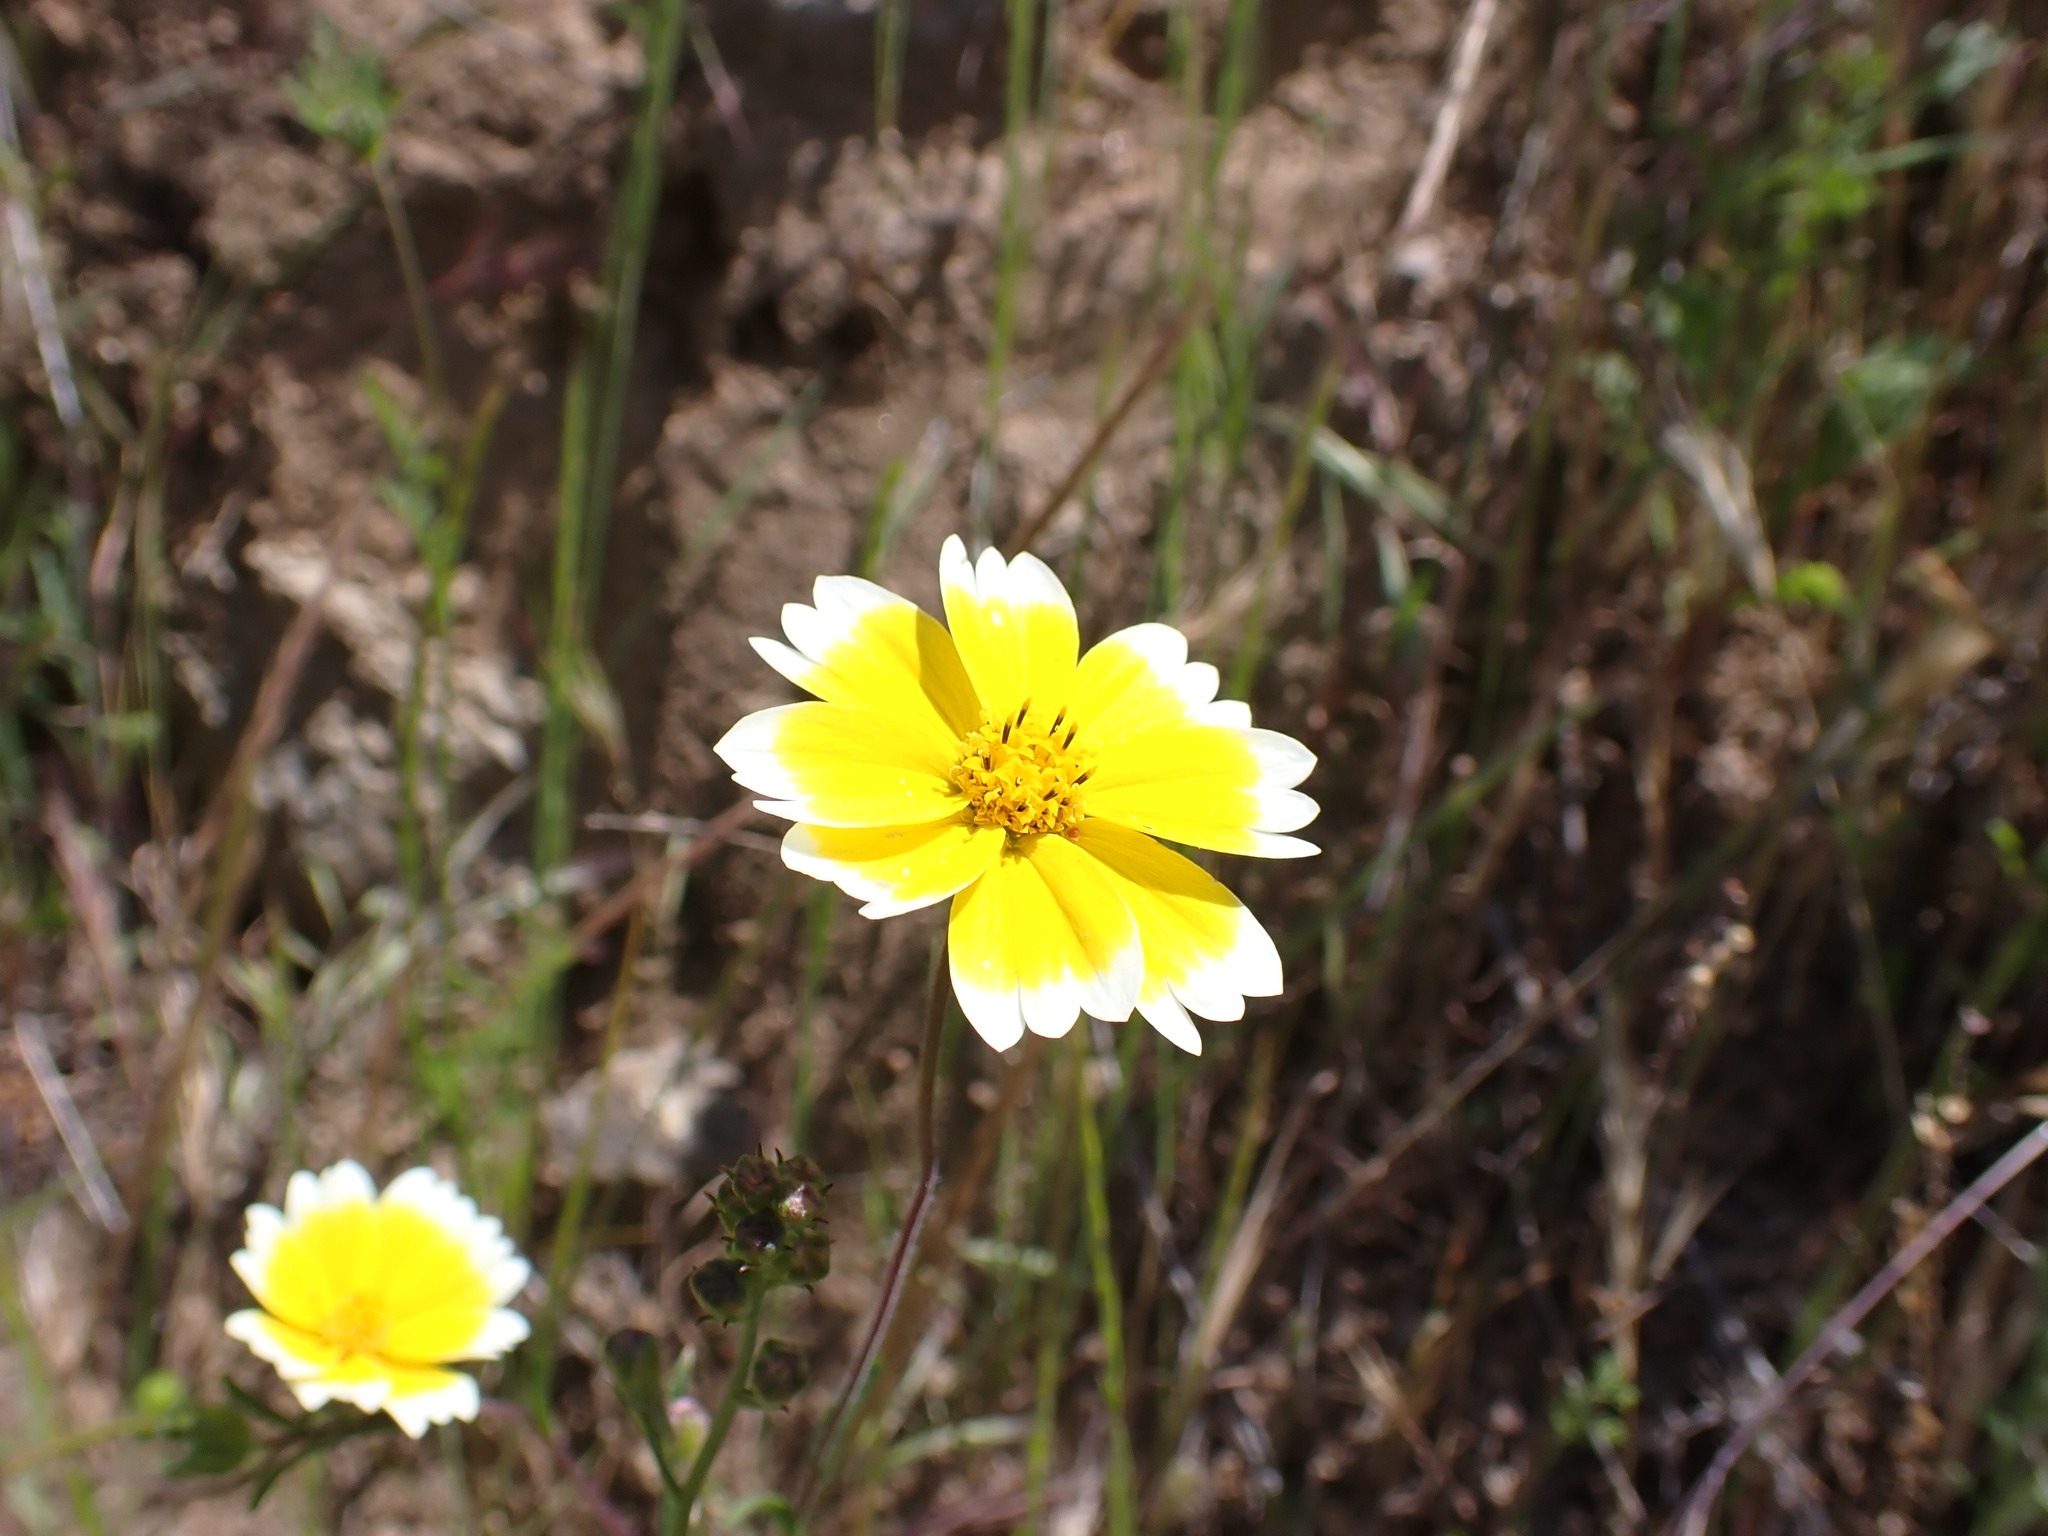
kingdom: Plantae
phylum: Tracheophyta
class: Magnoliopsida
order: Asterales
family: Asteraceae
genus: Layia
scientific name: Layia platyglossa
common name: Tidy-tips
